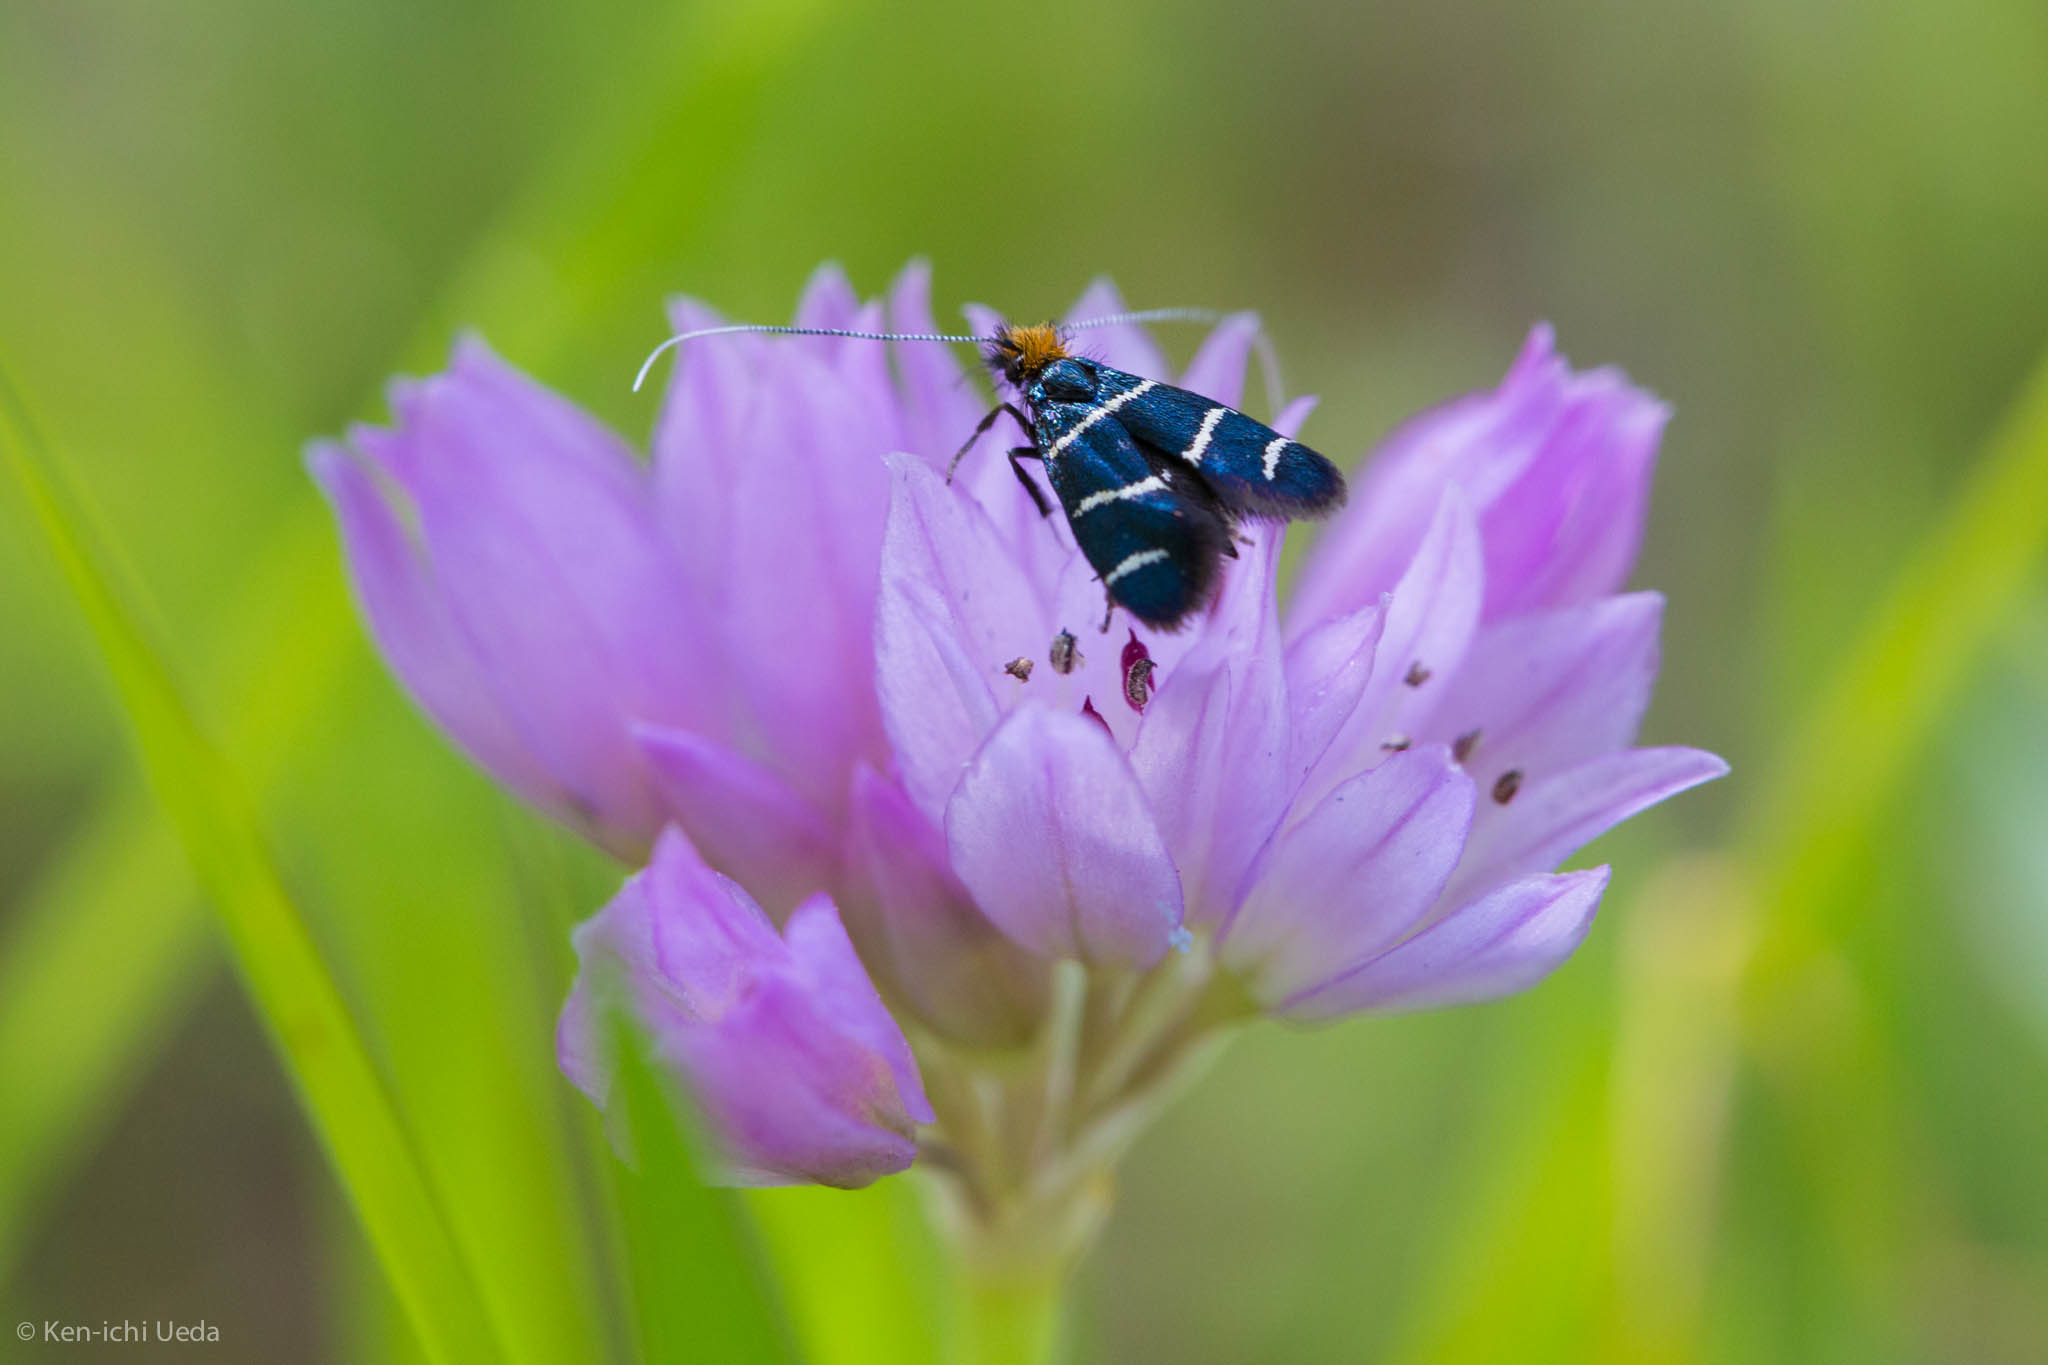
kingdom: Animalia
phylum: Arthropoda
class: Insecta
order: Lepidoptera
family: Adelidae
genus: Adela
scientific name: Adela trigrapha
